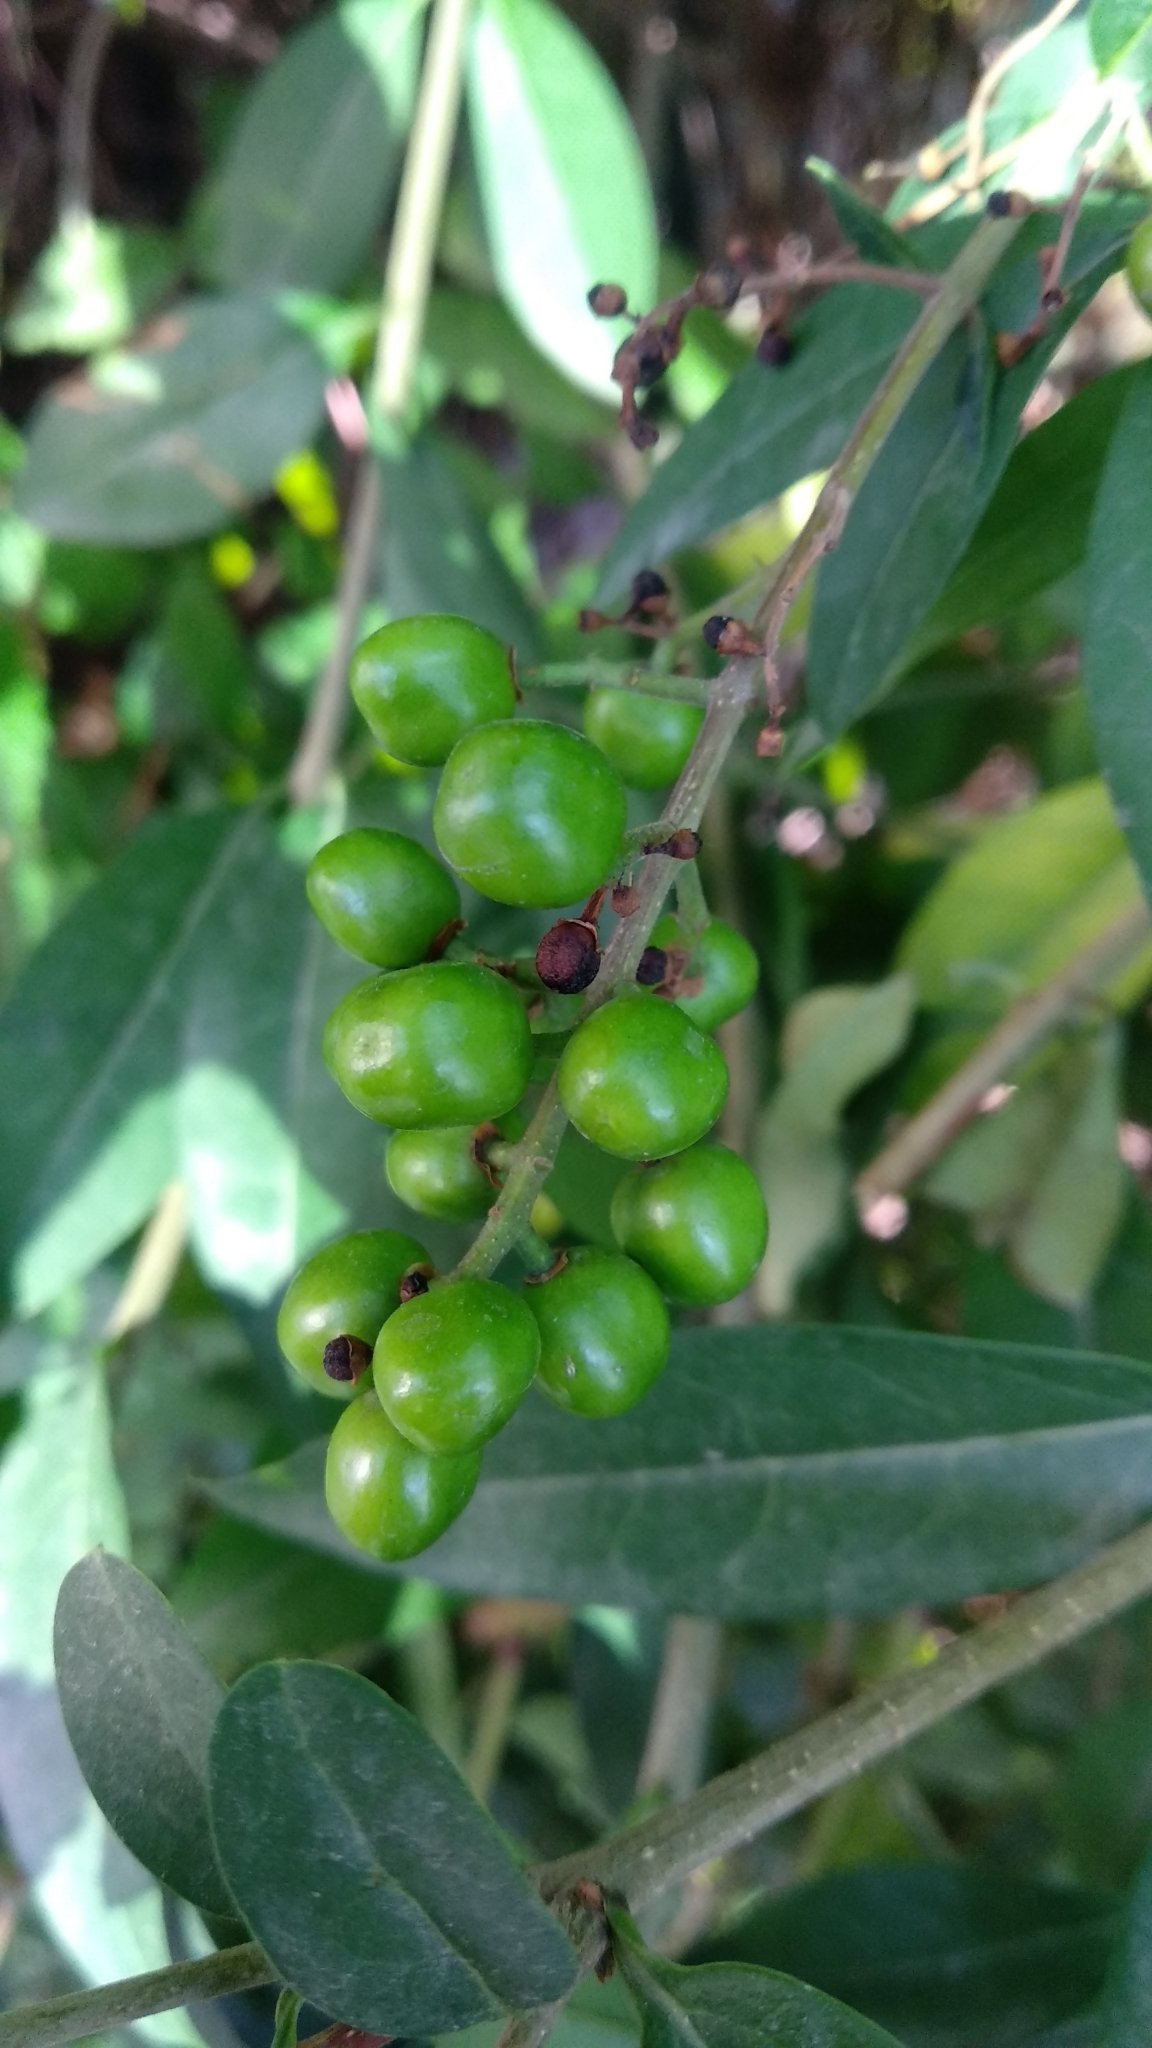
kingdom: Plantae
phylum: Tracheophyta
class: Magnoliopsida
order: Lamiales
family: Oleaceae
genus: Ligustrum
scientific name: Ligustrum vulgare
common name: Wild privet
